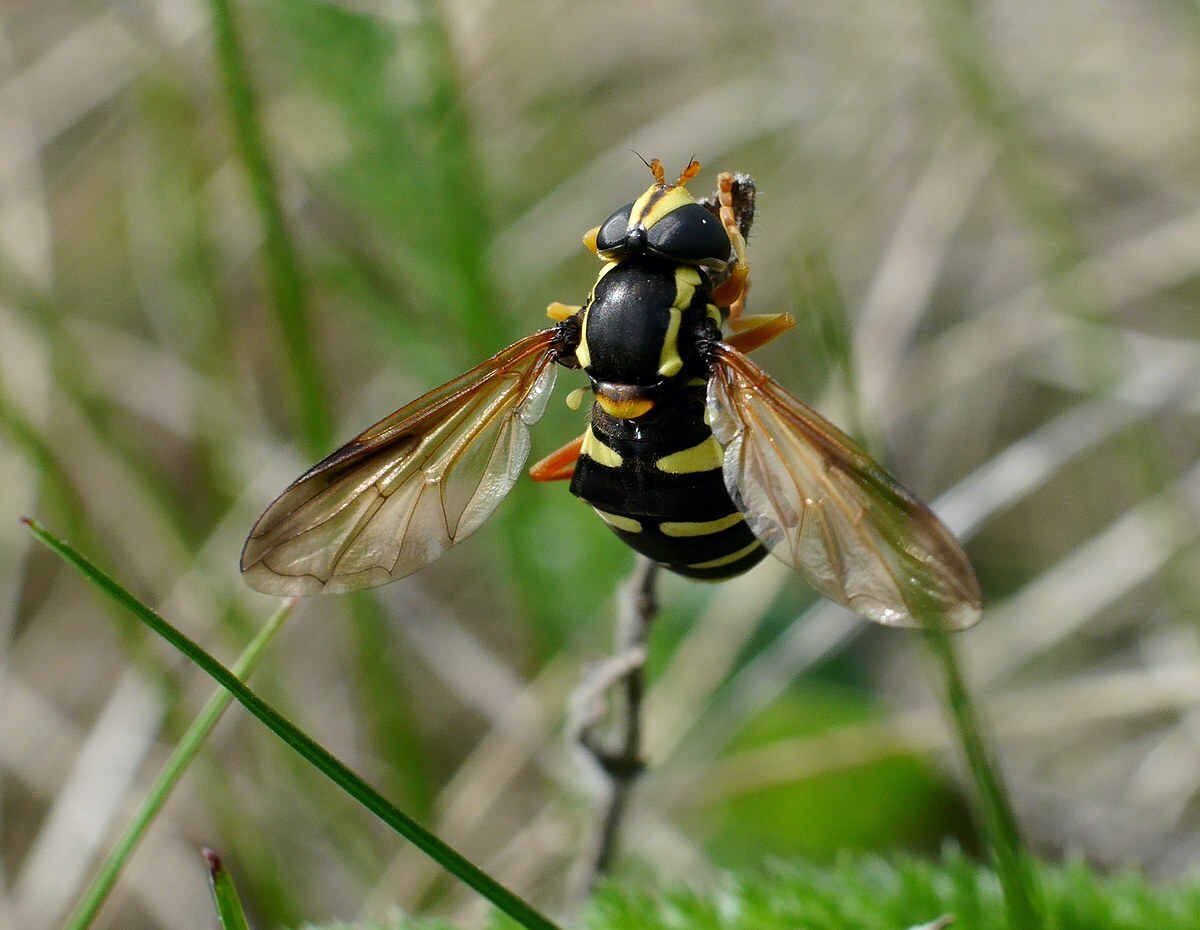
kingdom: Animalia
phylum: Arthropoda
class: Insecta
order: Diptera
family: Syrphidae
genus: Philhelius
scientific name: Philhelius citrofasciata
